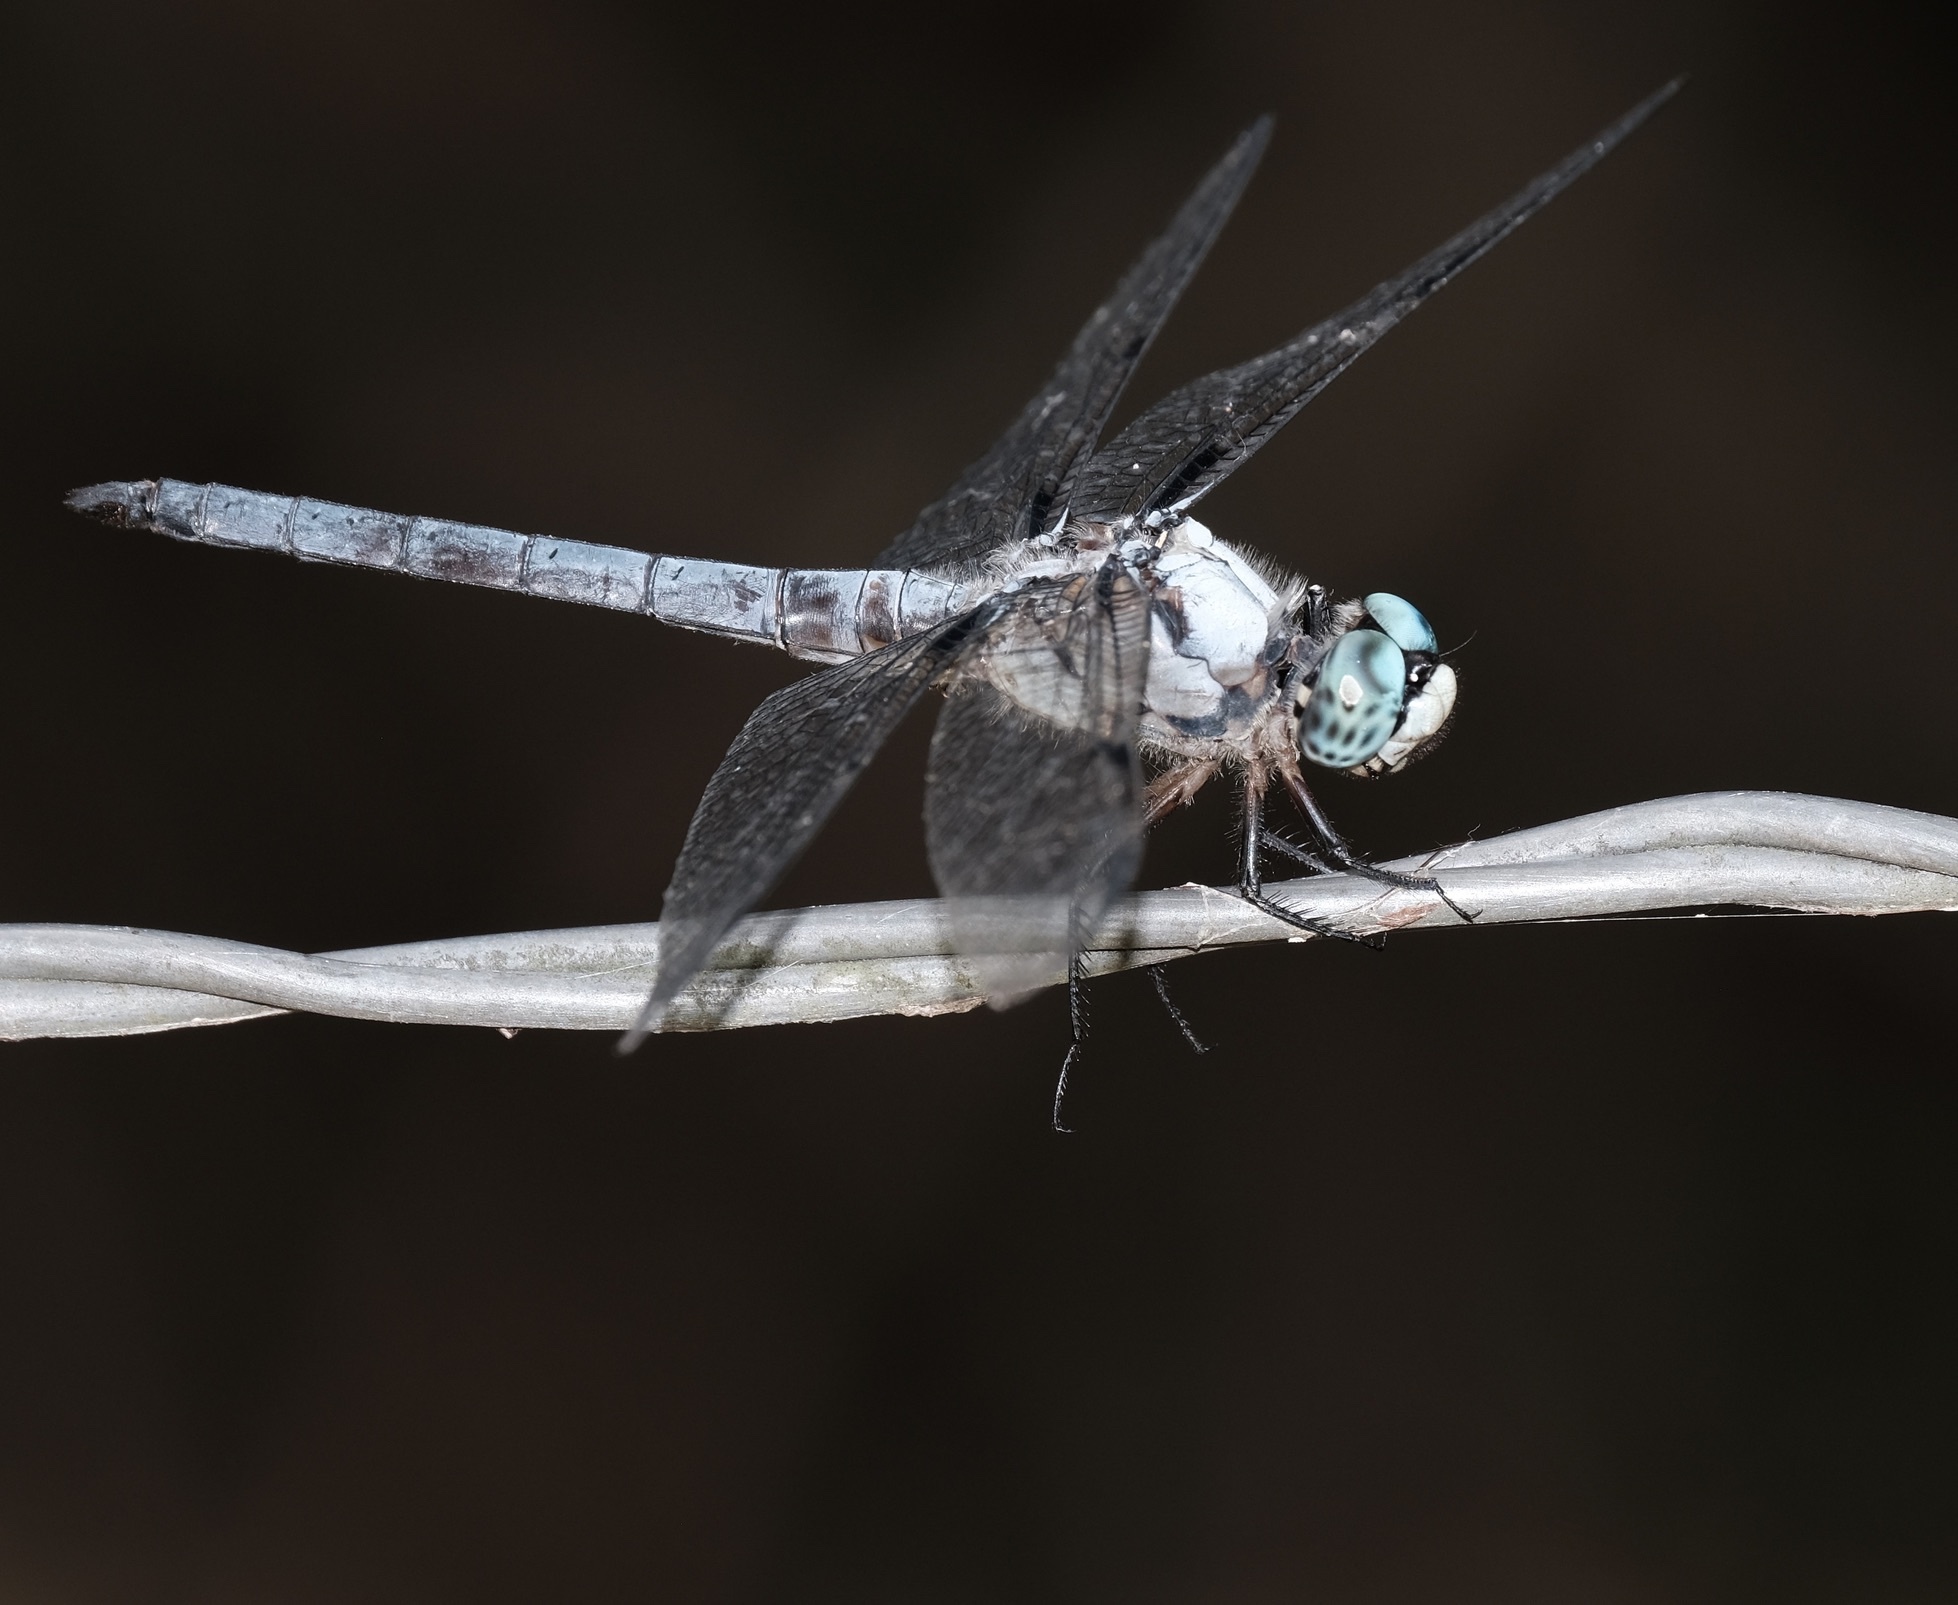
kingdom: Animalia
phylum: Arthropoda
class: Insecta
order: Odonata
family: Libellulidae
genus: Libellula
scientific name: Libellula vibrans
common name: Great blue skimmer
